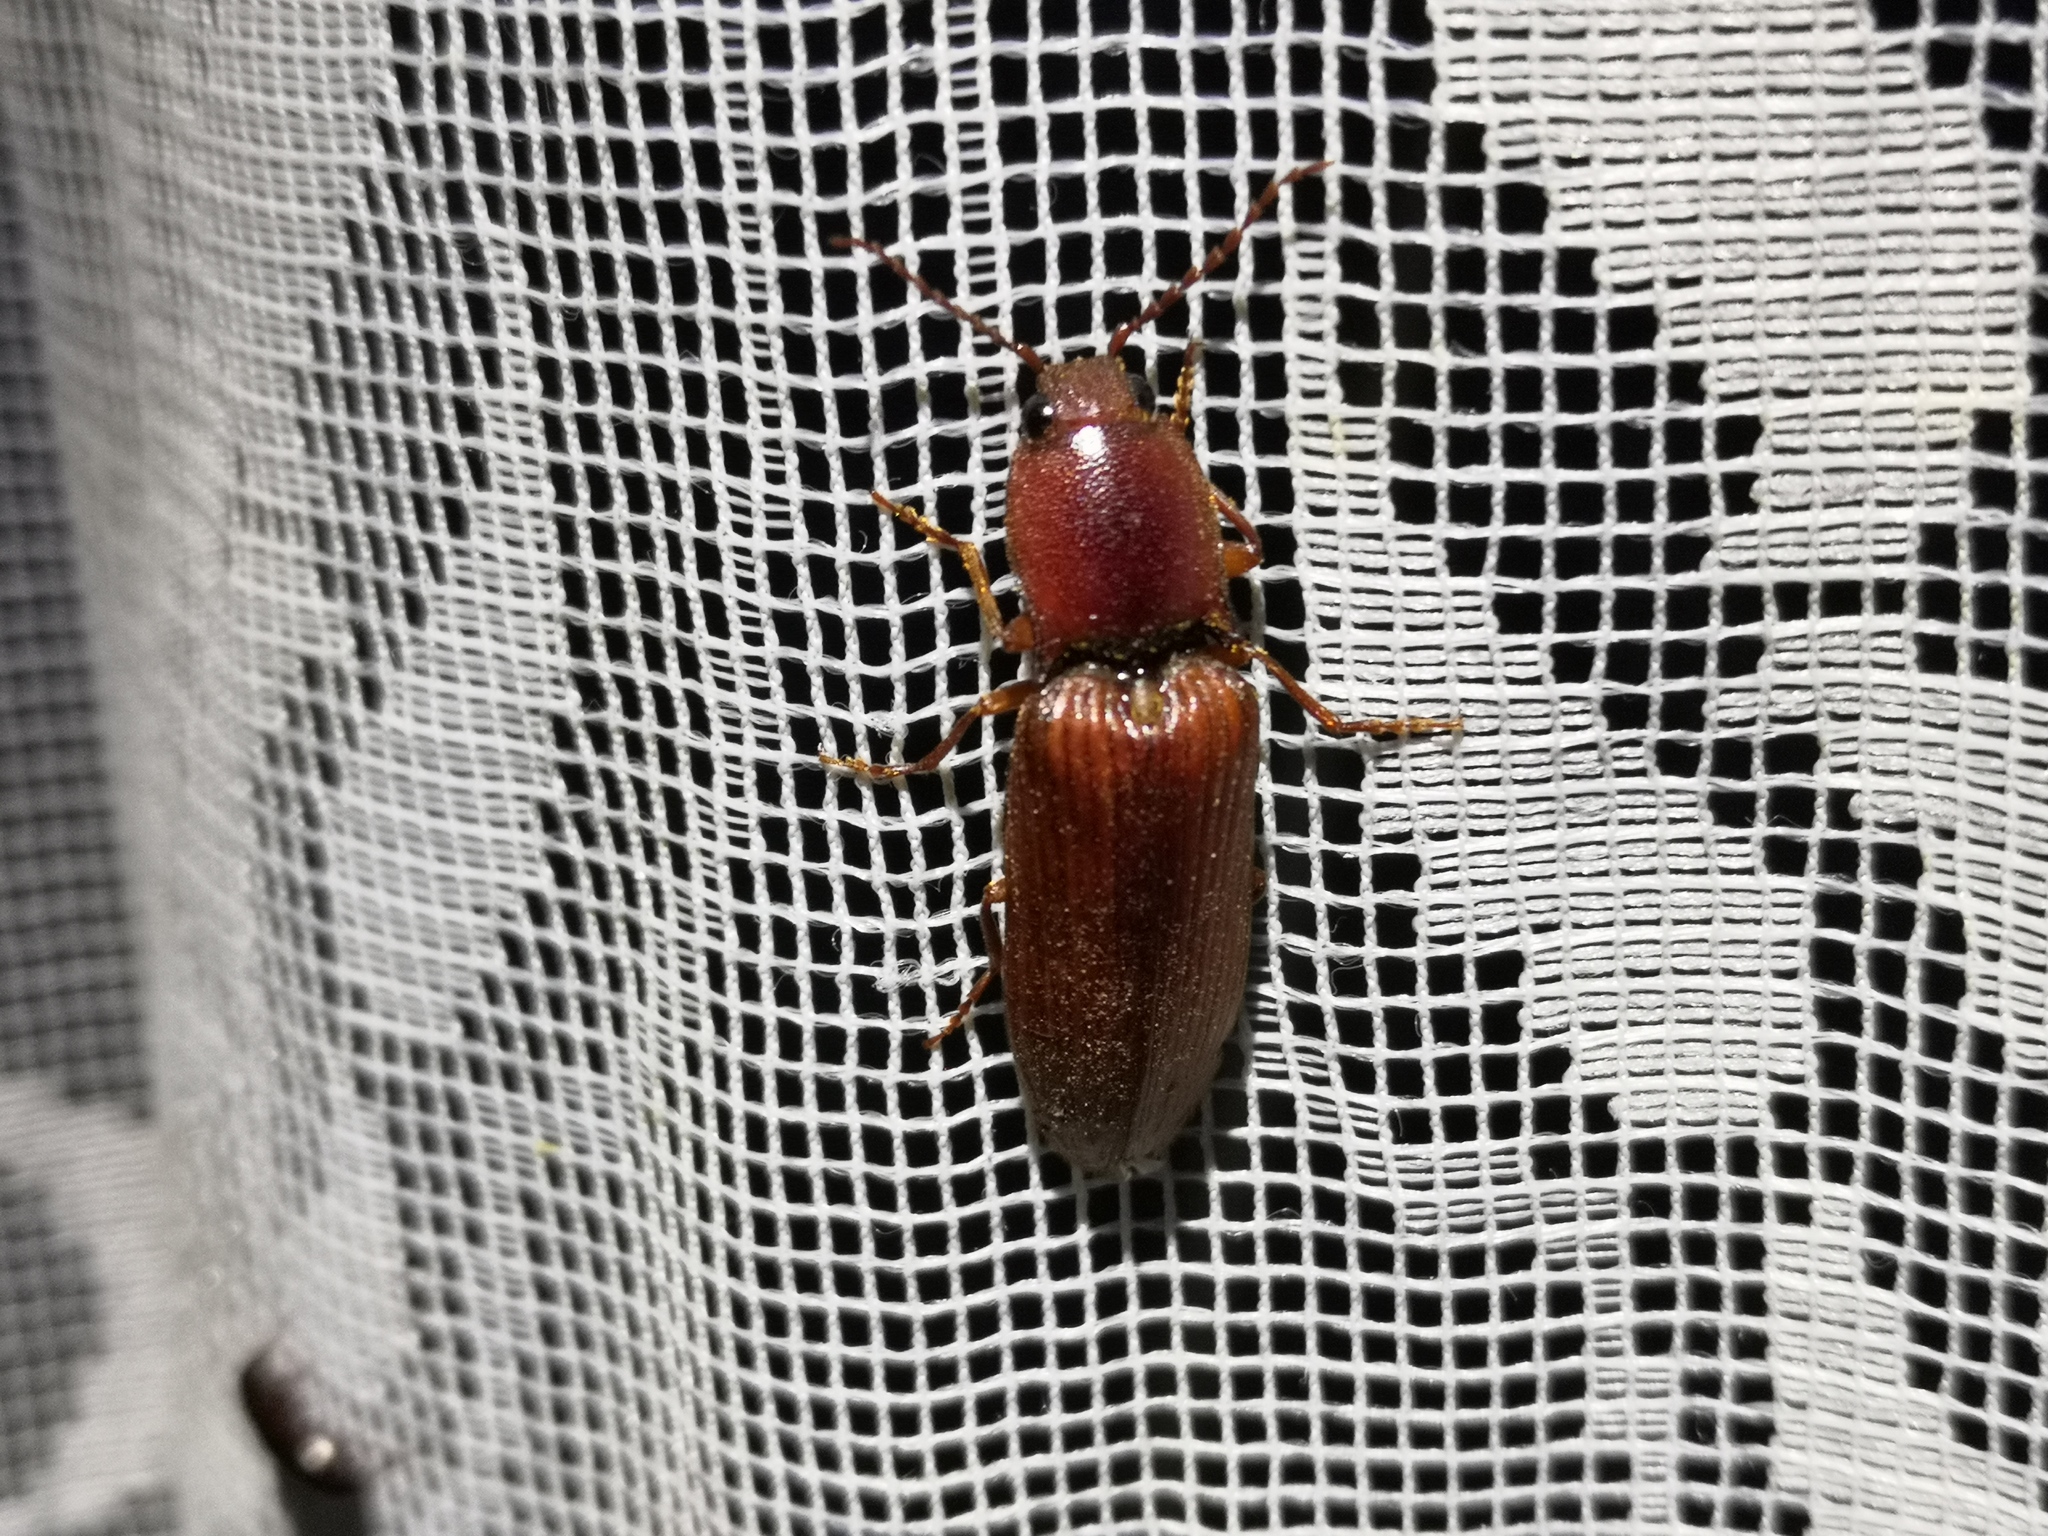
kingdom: Animalia
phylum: Arthropoda
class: Insecta
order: Coleoptera
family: Elateridae
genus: Stenagostus
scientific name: Stenagostus rufus
